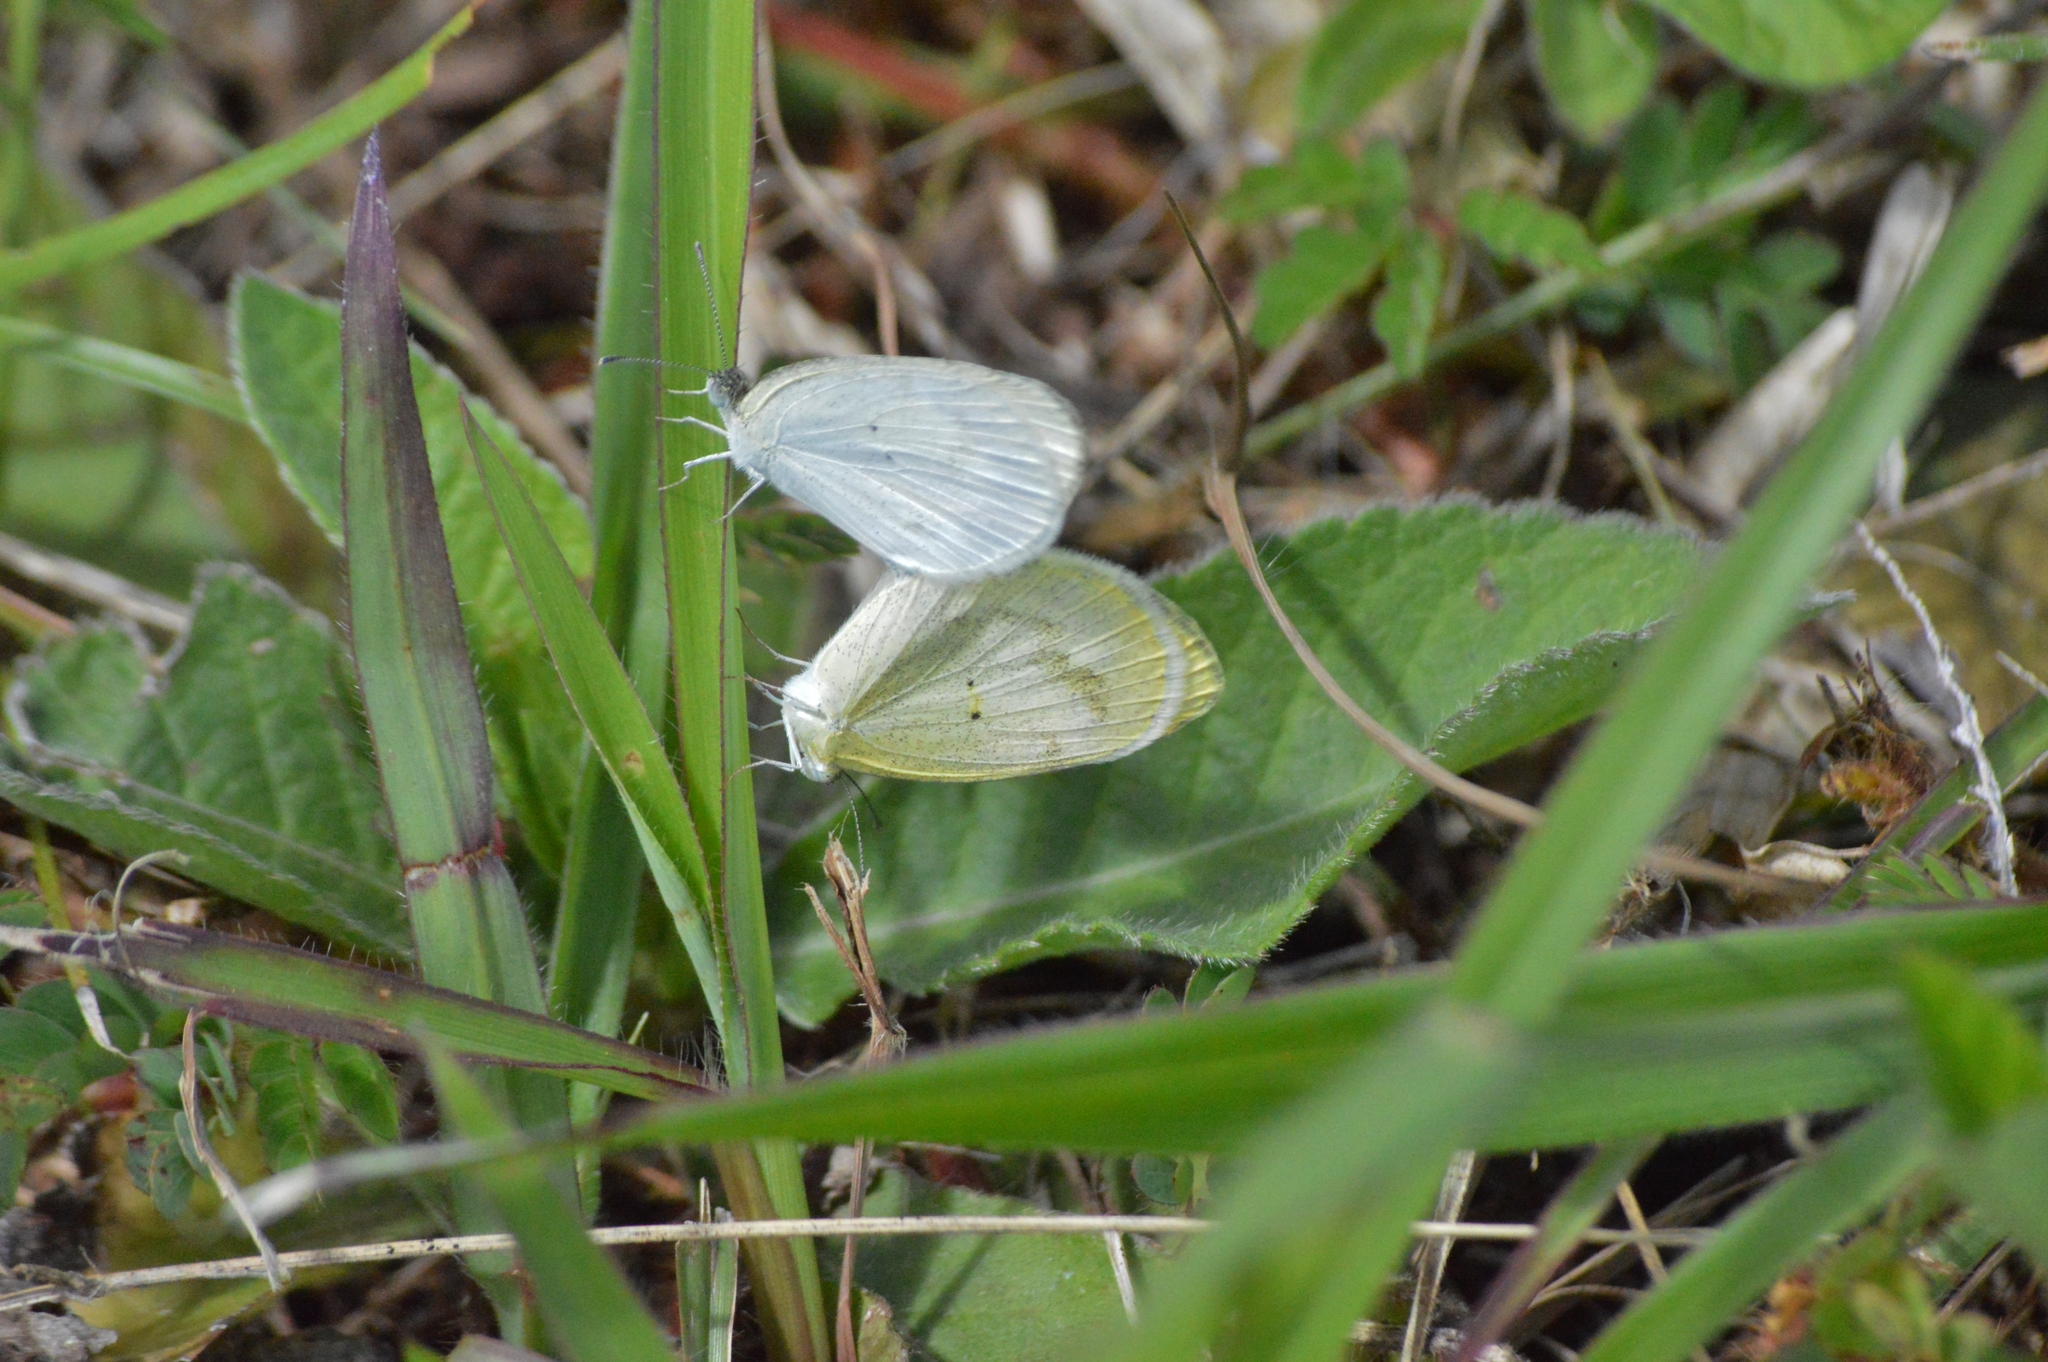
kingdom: Animalia
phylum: Arthropoda
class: Insecta
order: Lepidoptera
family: Pieridae
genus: Eurema
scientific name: Eurema elathea
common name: Banded yellow
